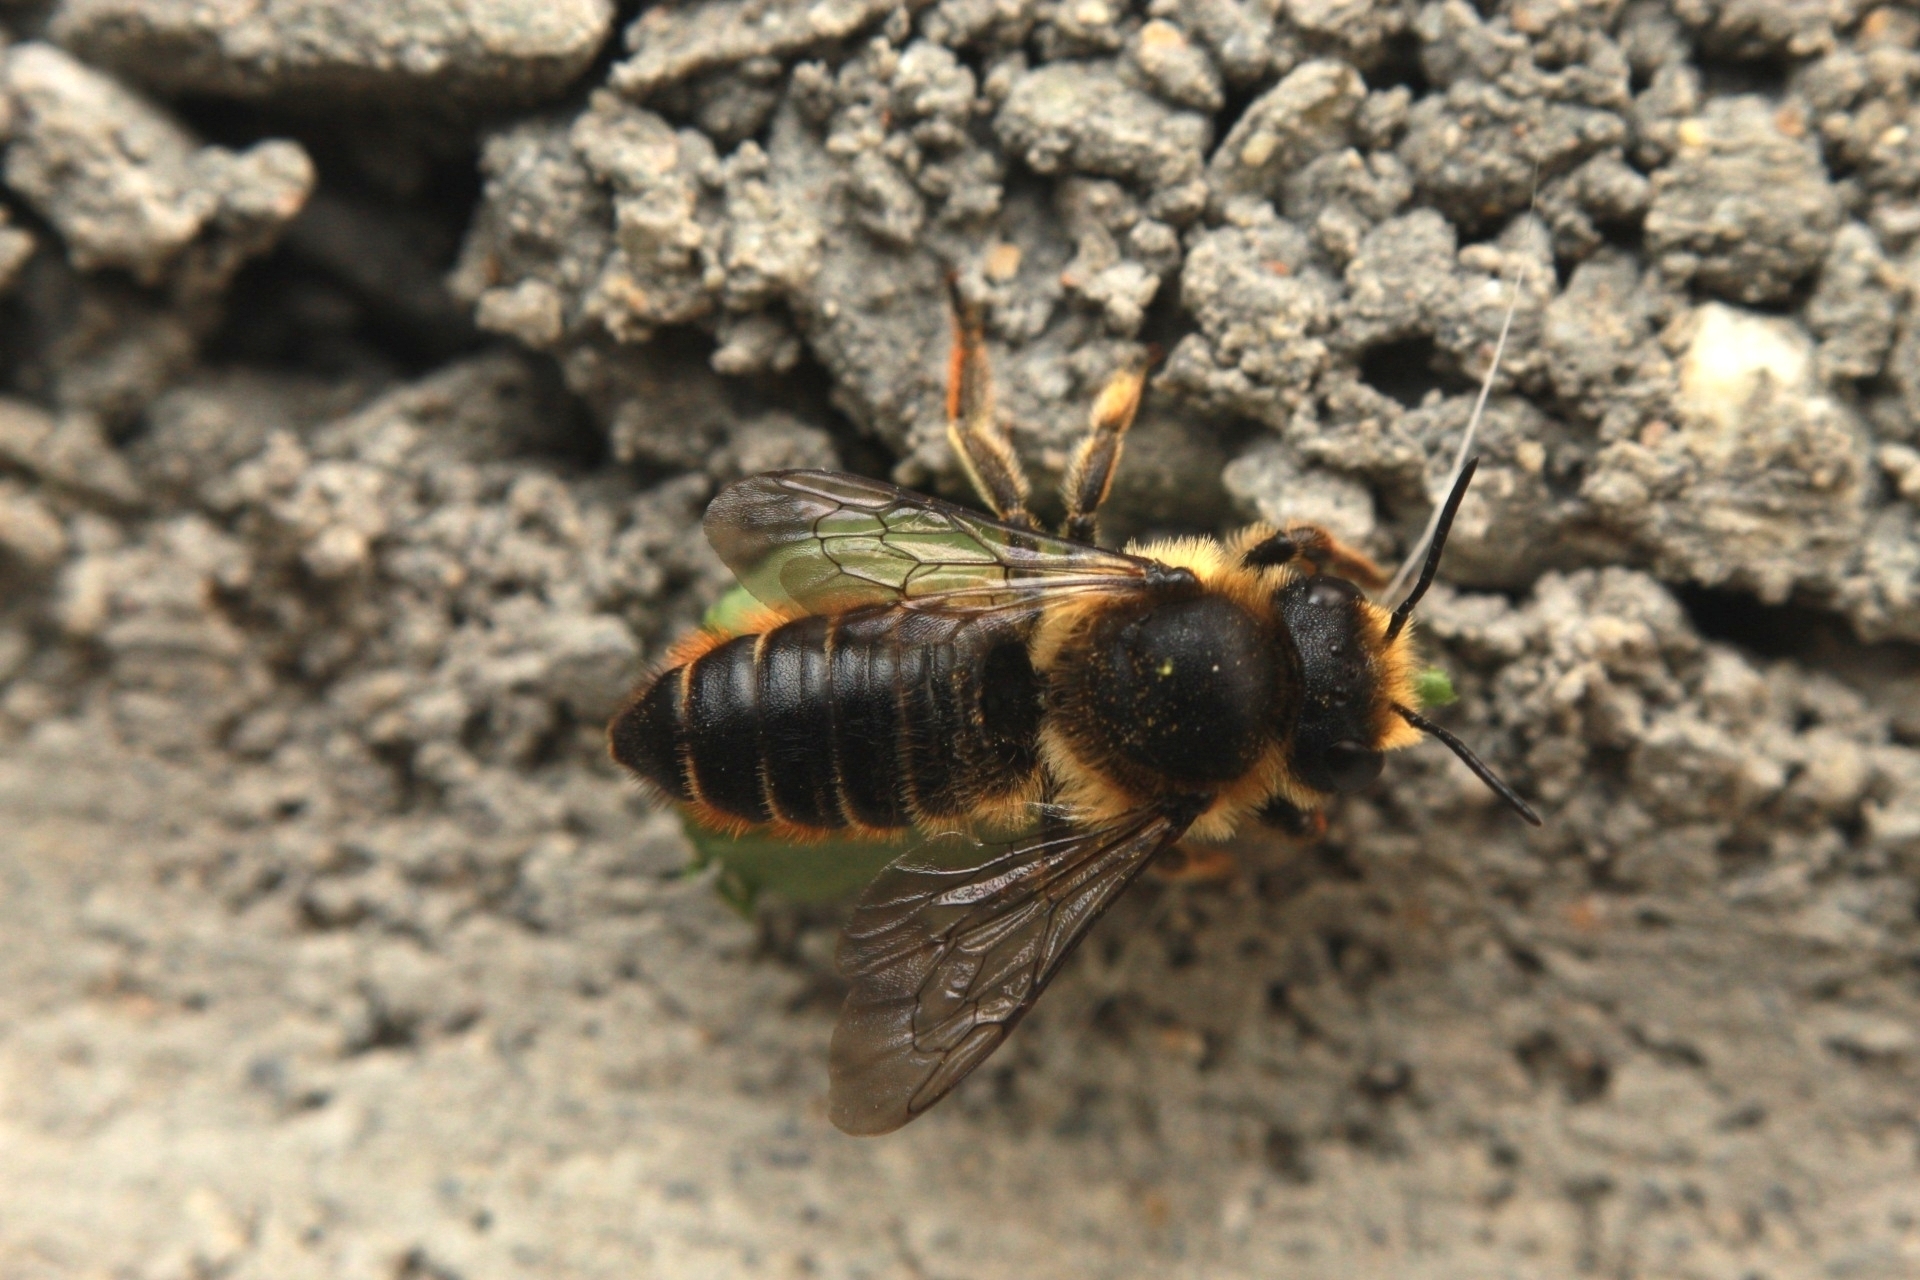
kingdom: Animalia
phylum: Arthropoda
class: Insecta
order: Hymenoptera
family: Megachilidae
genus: Megachile
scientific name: Megachile centuncularis
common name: Patchwork leafcutter bee
